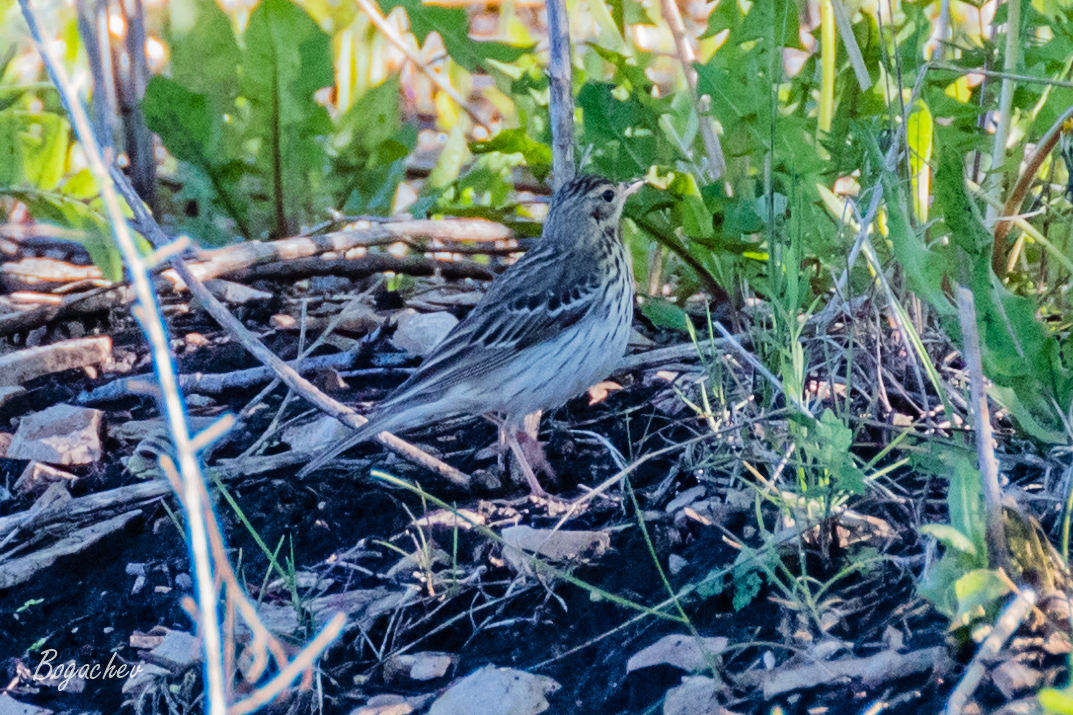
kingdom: Animalia
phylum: Chordata
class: Aves
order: Passeriformes
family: Motacillidae
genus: Anthus
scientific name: Anthus trivialis
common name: Tree pipit
